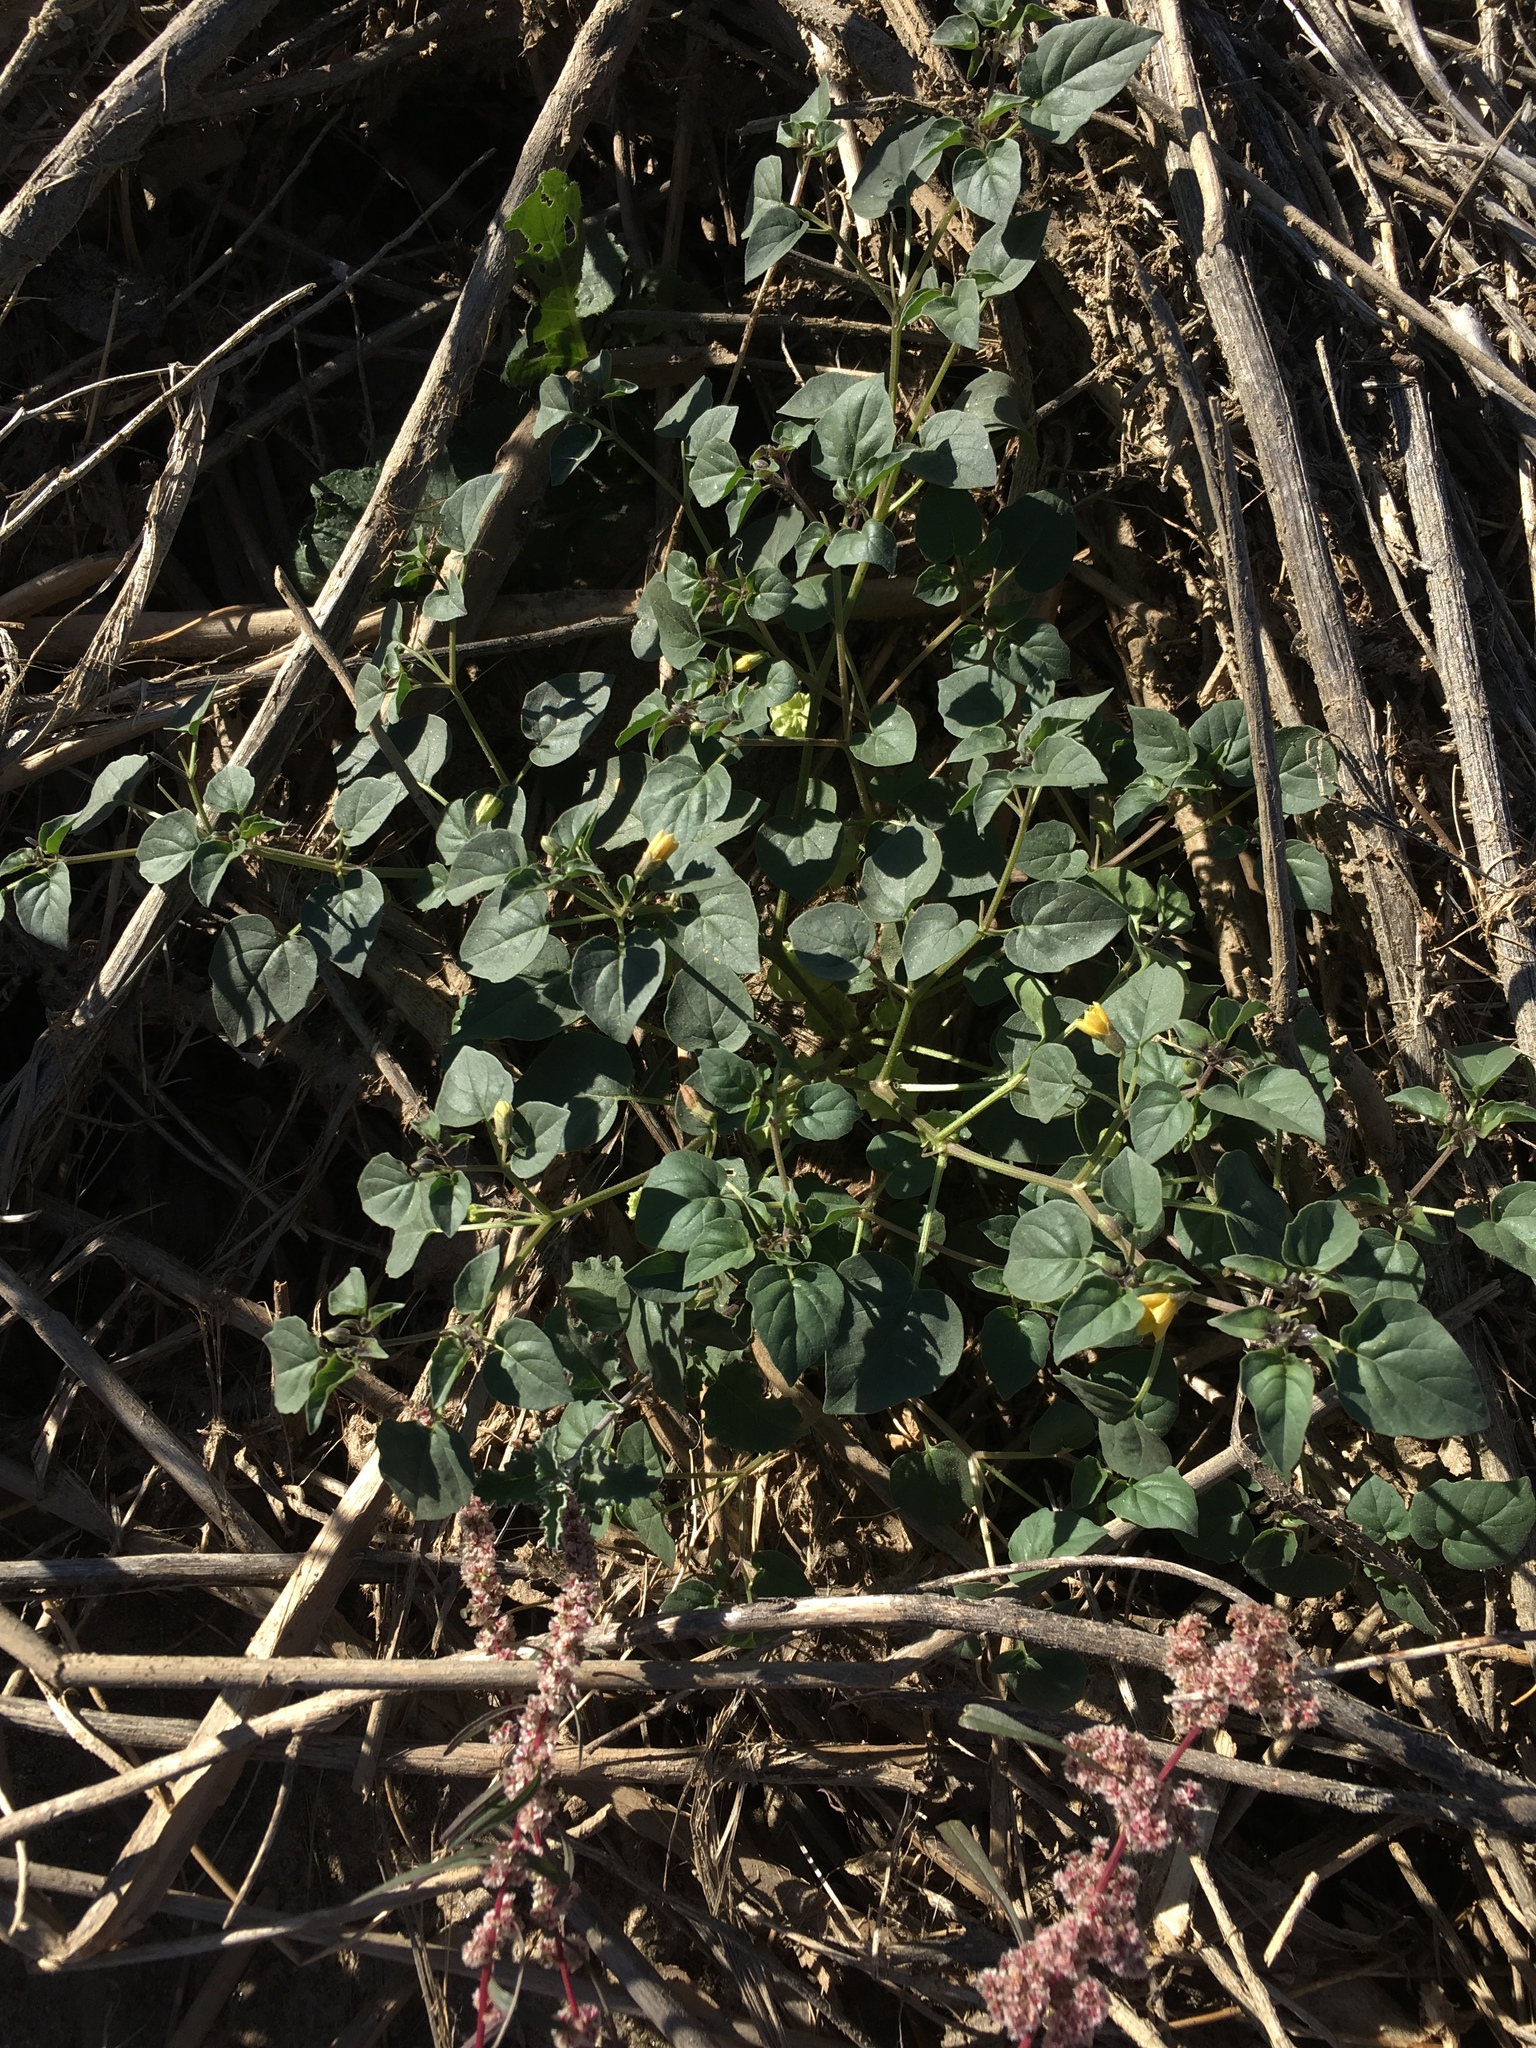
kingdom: Plantae
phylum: Tracheophyta
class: Magnoliopsida
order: Solanales
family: Solanaceae
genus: Physalis
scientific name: Physalis crassifolia
